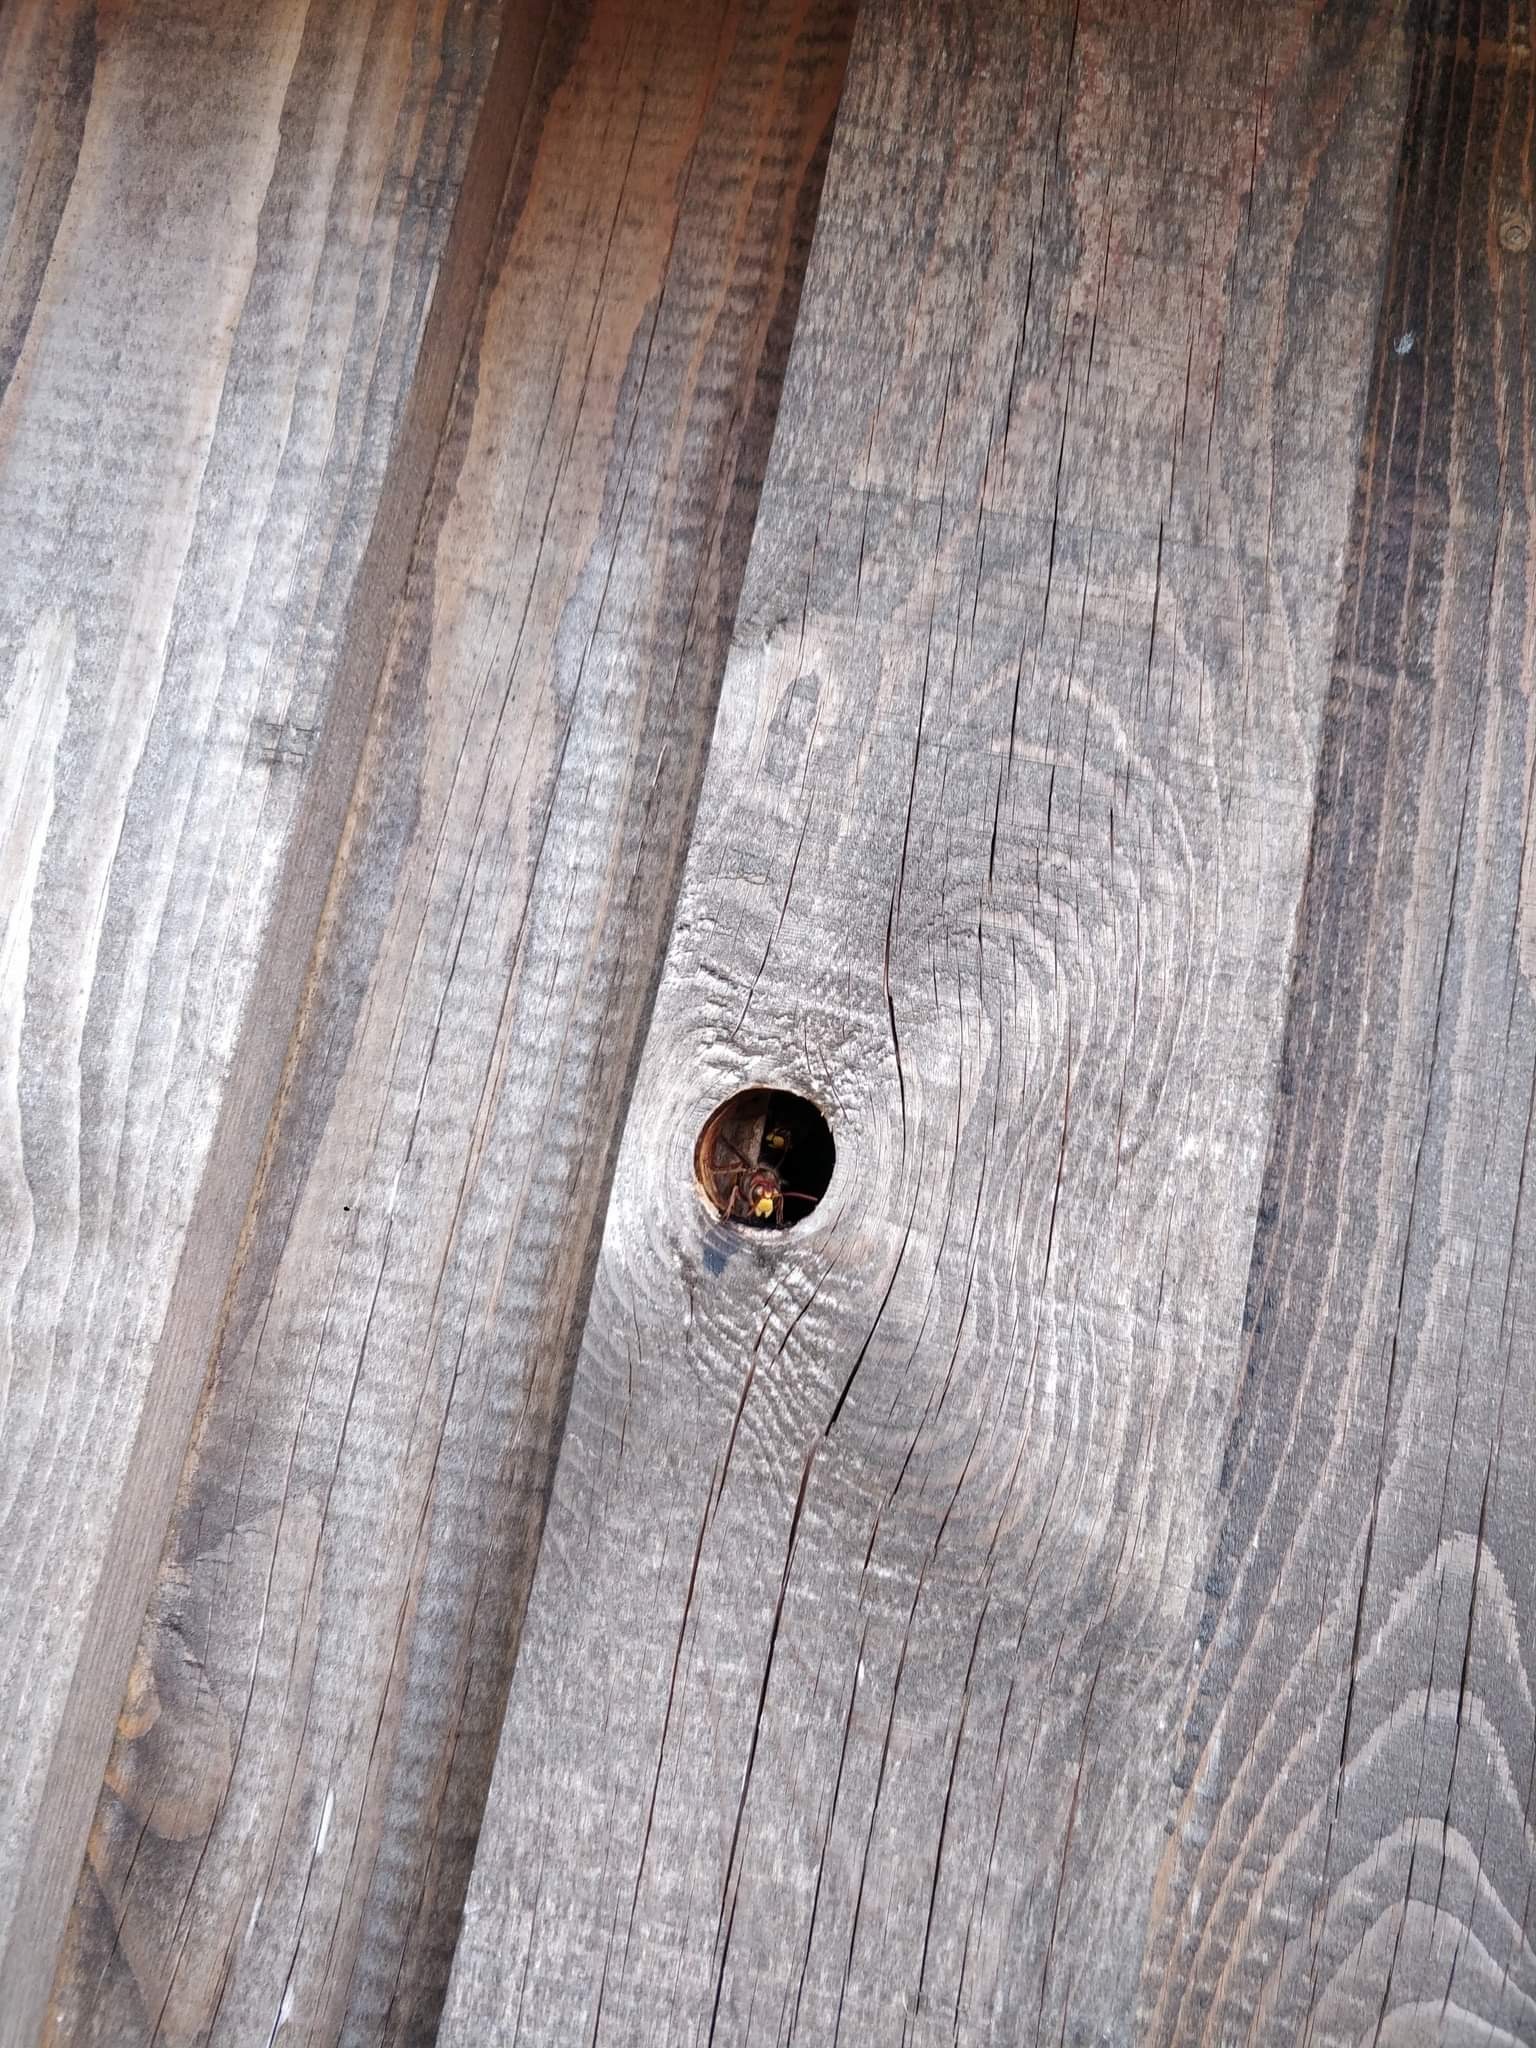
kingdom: Animalia
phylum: Arthropoda
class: Insecta
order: Hymenoptera
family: Vespidae
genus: Vespa
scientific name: Vespa crabro
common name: Hornet
